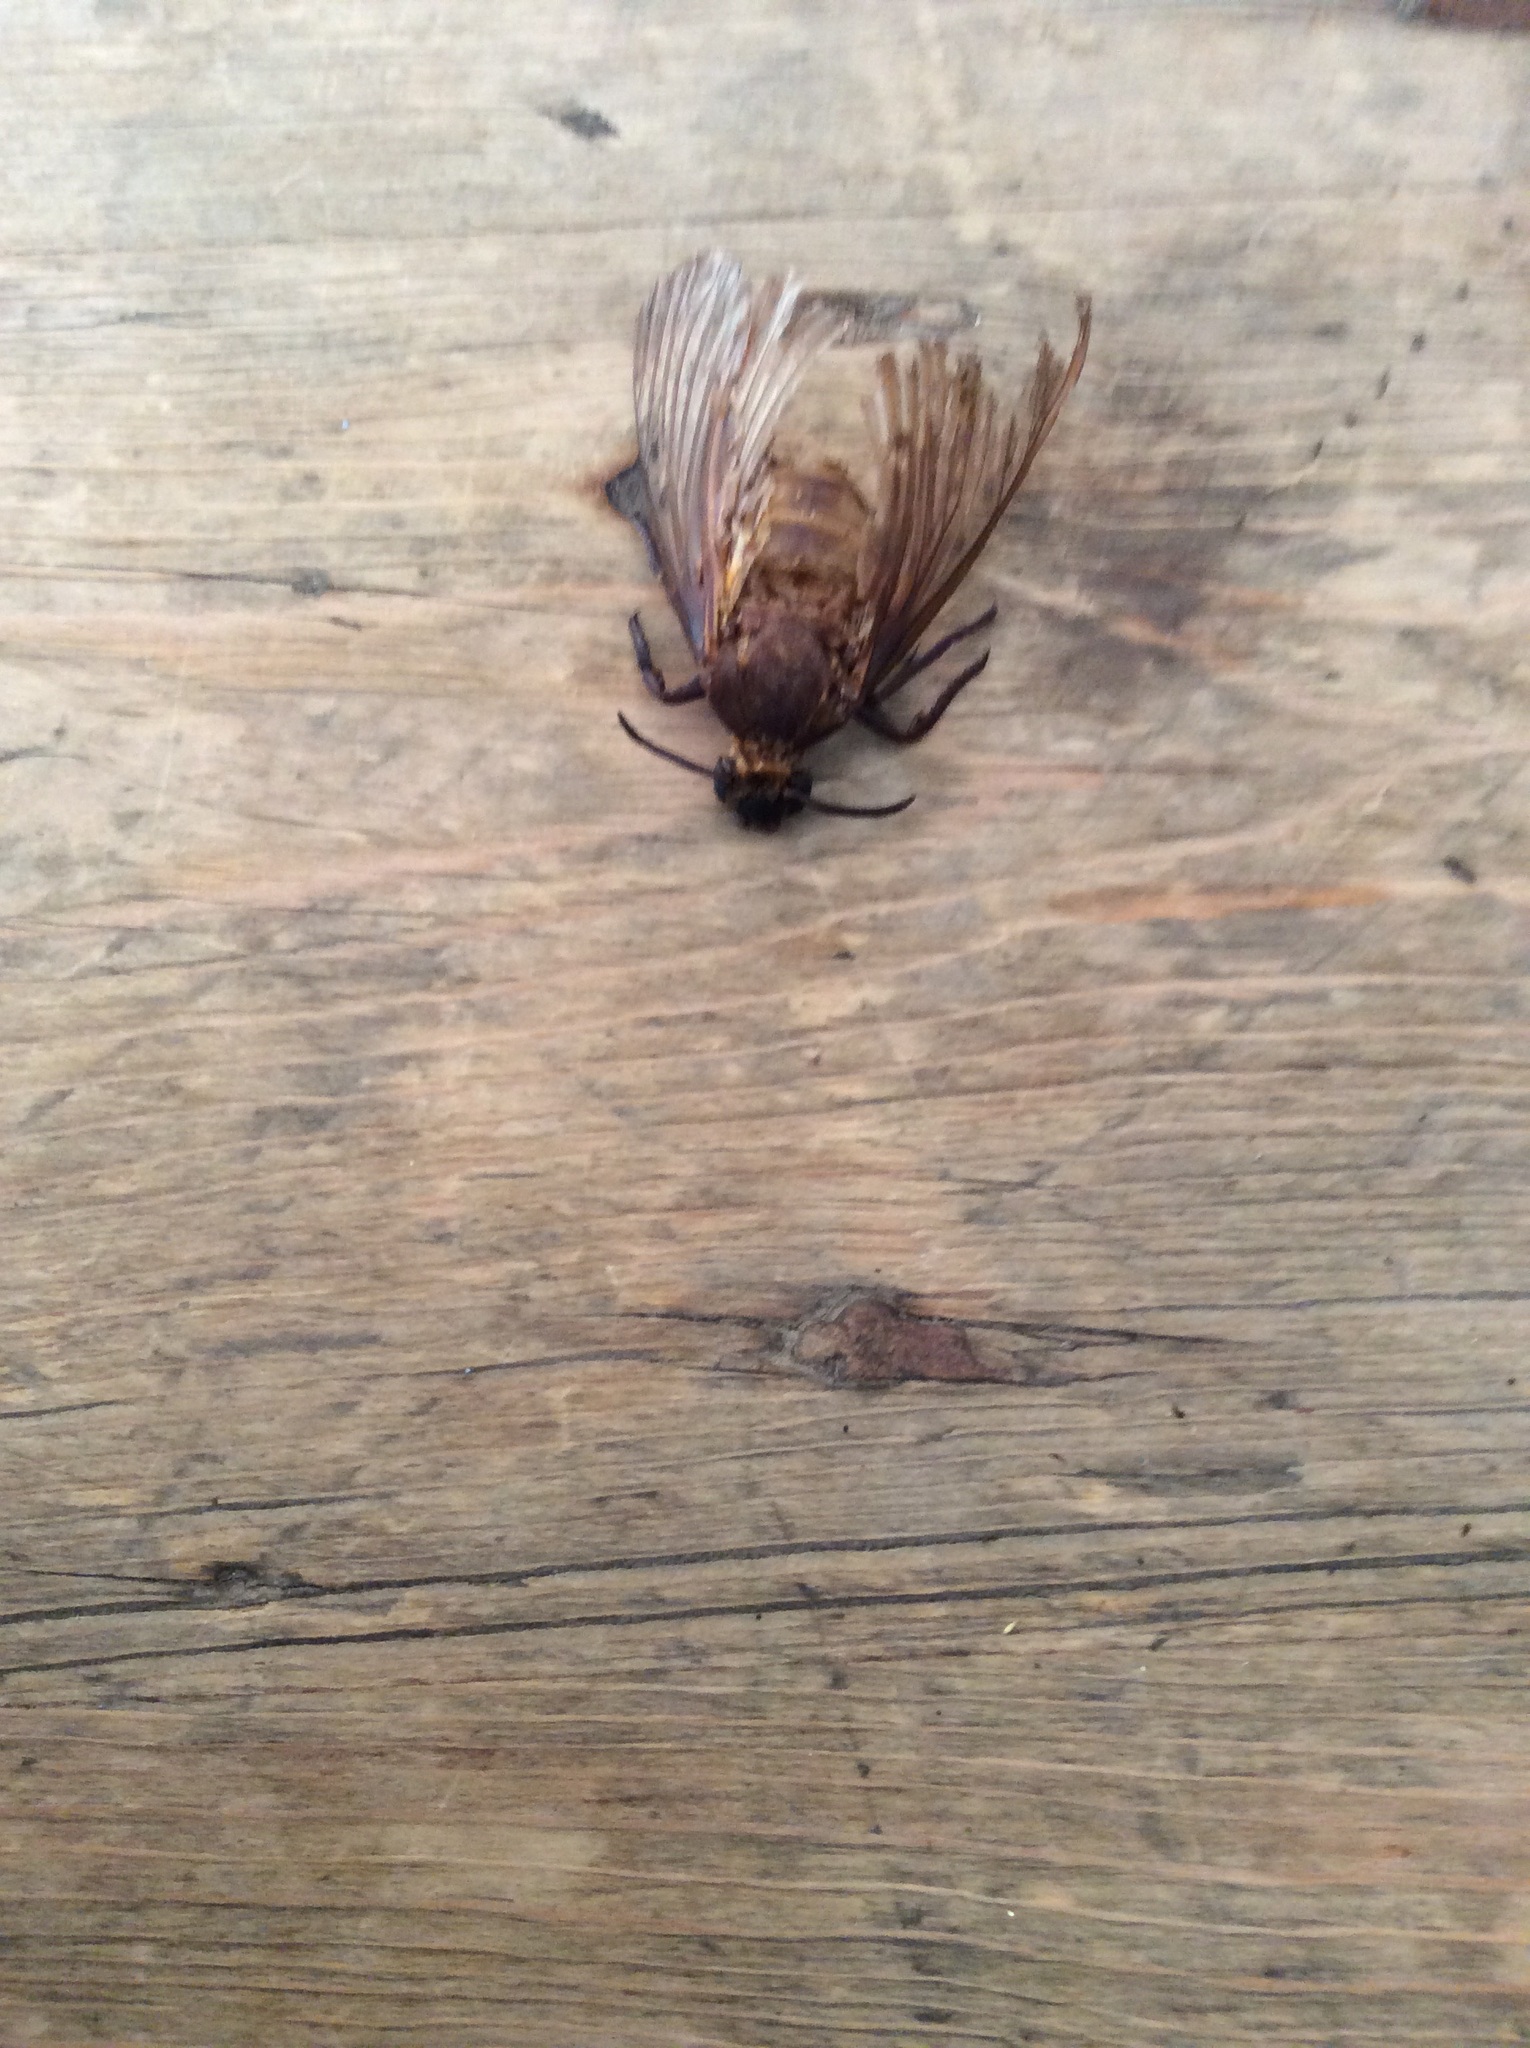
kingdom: Animalia
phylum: Arthropoda
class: Insecta
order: Lepidoptera
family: Sphingidae
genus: Acherontia
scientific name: Acherontia atropos
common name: Death's-head hawk moth
